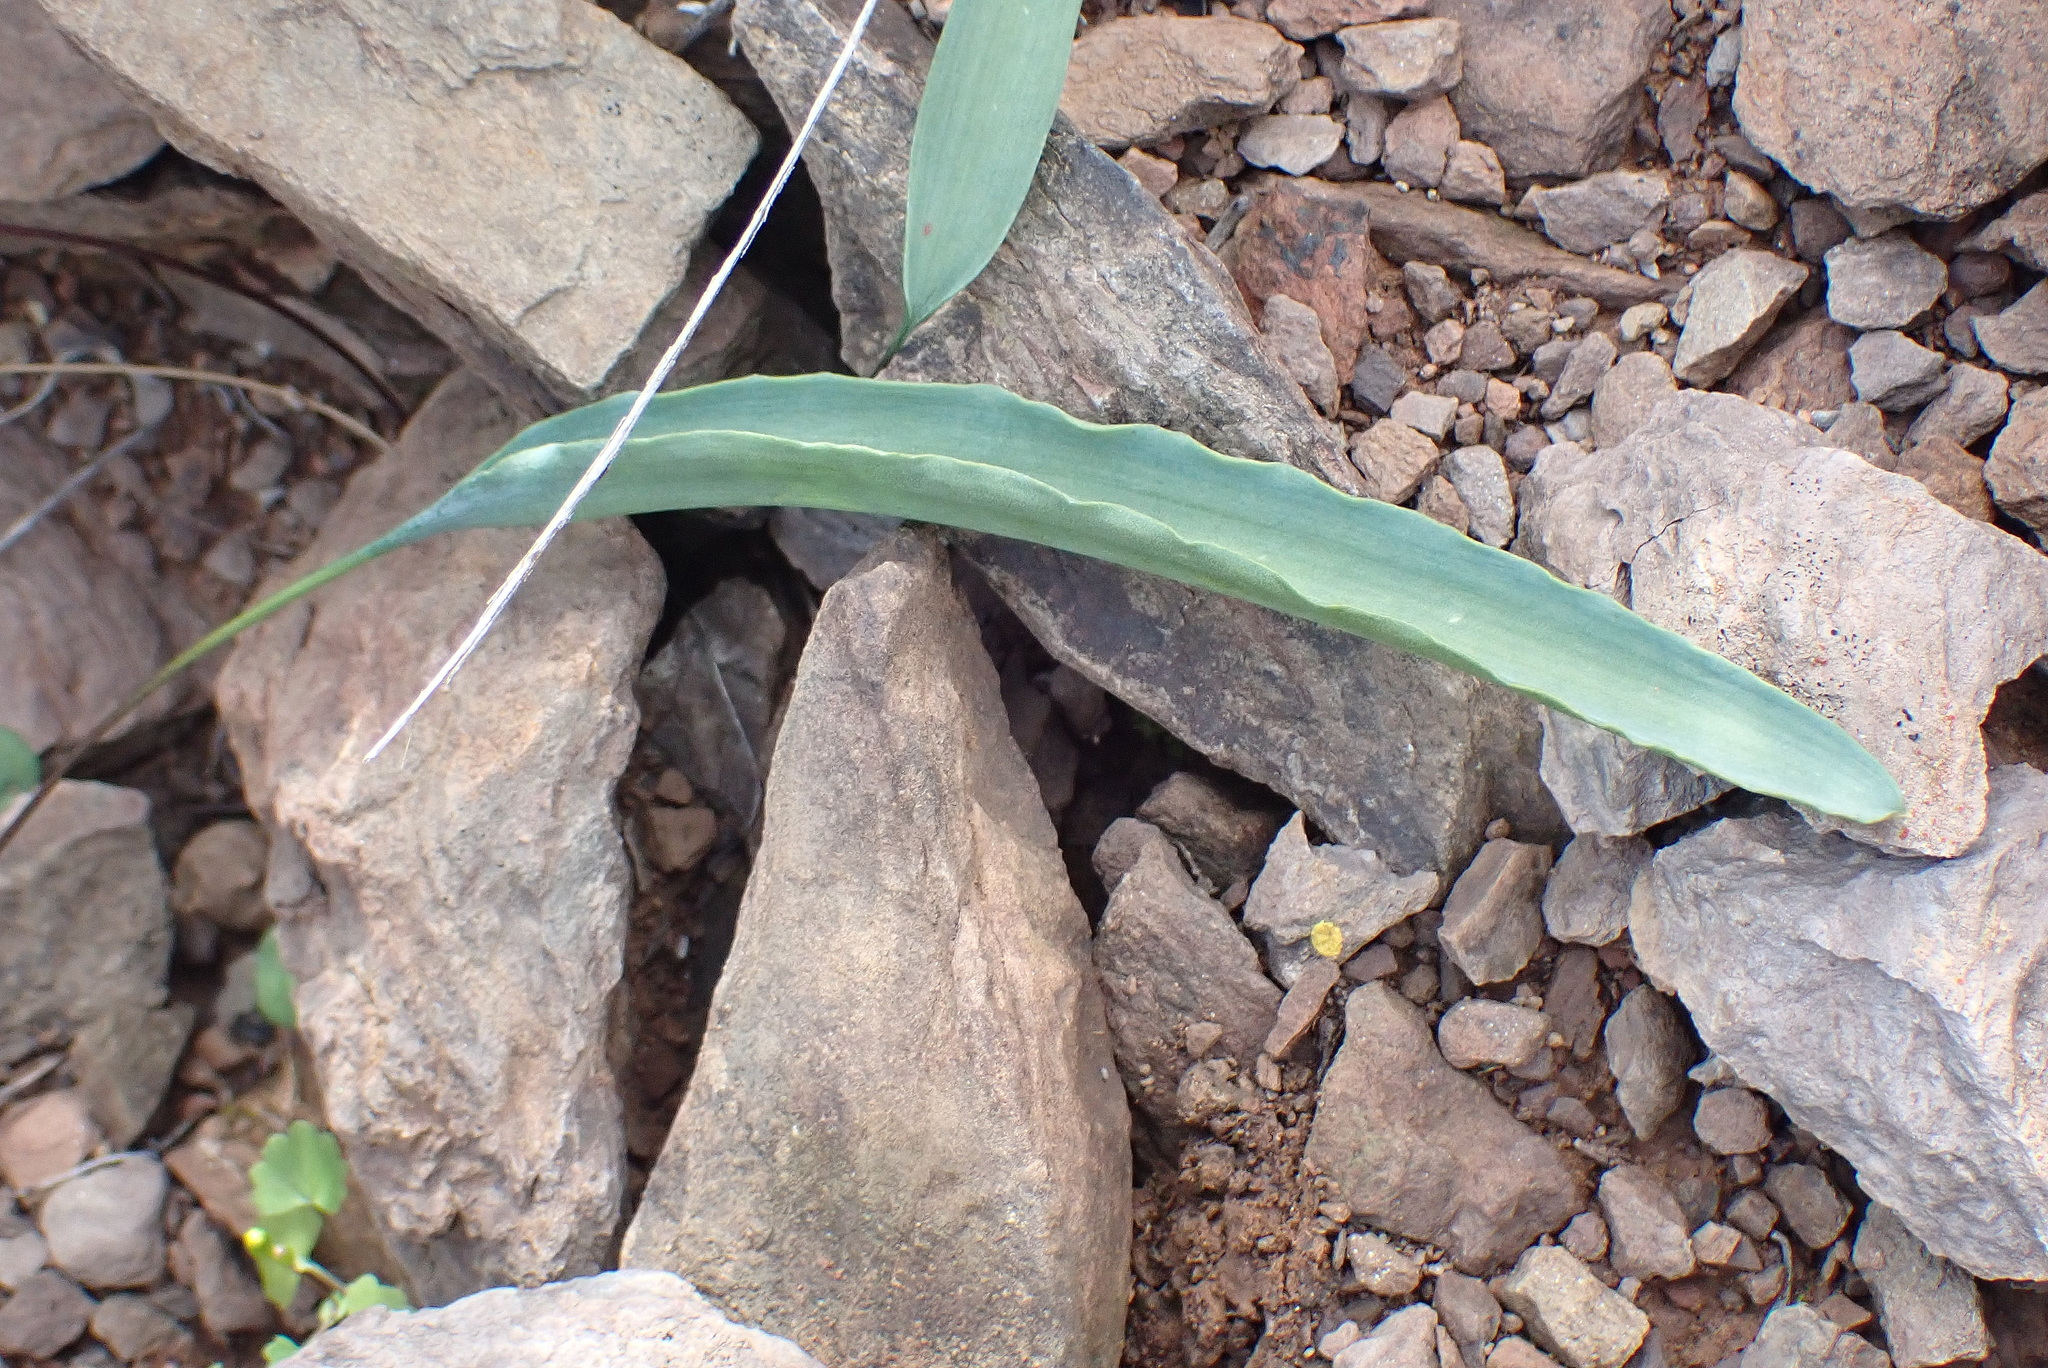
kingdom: Plantae
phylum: Tracheophyta
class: Liliopsida
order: Asparagales
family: Asparagaceae
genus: Eriospermum
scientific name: Eriospermum aequilibre
